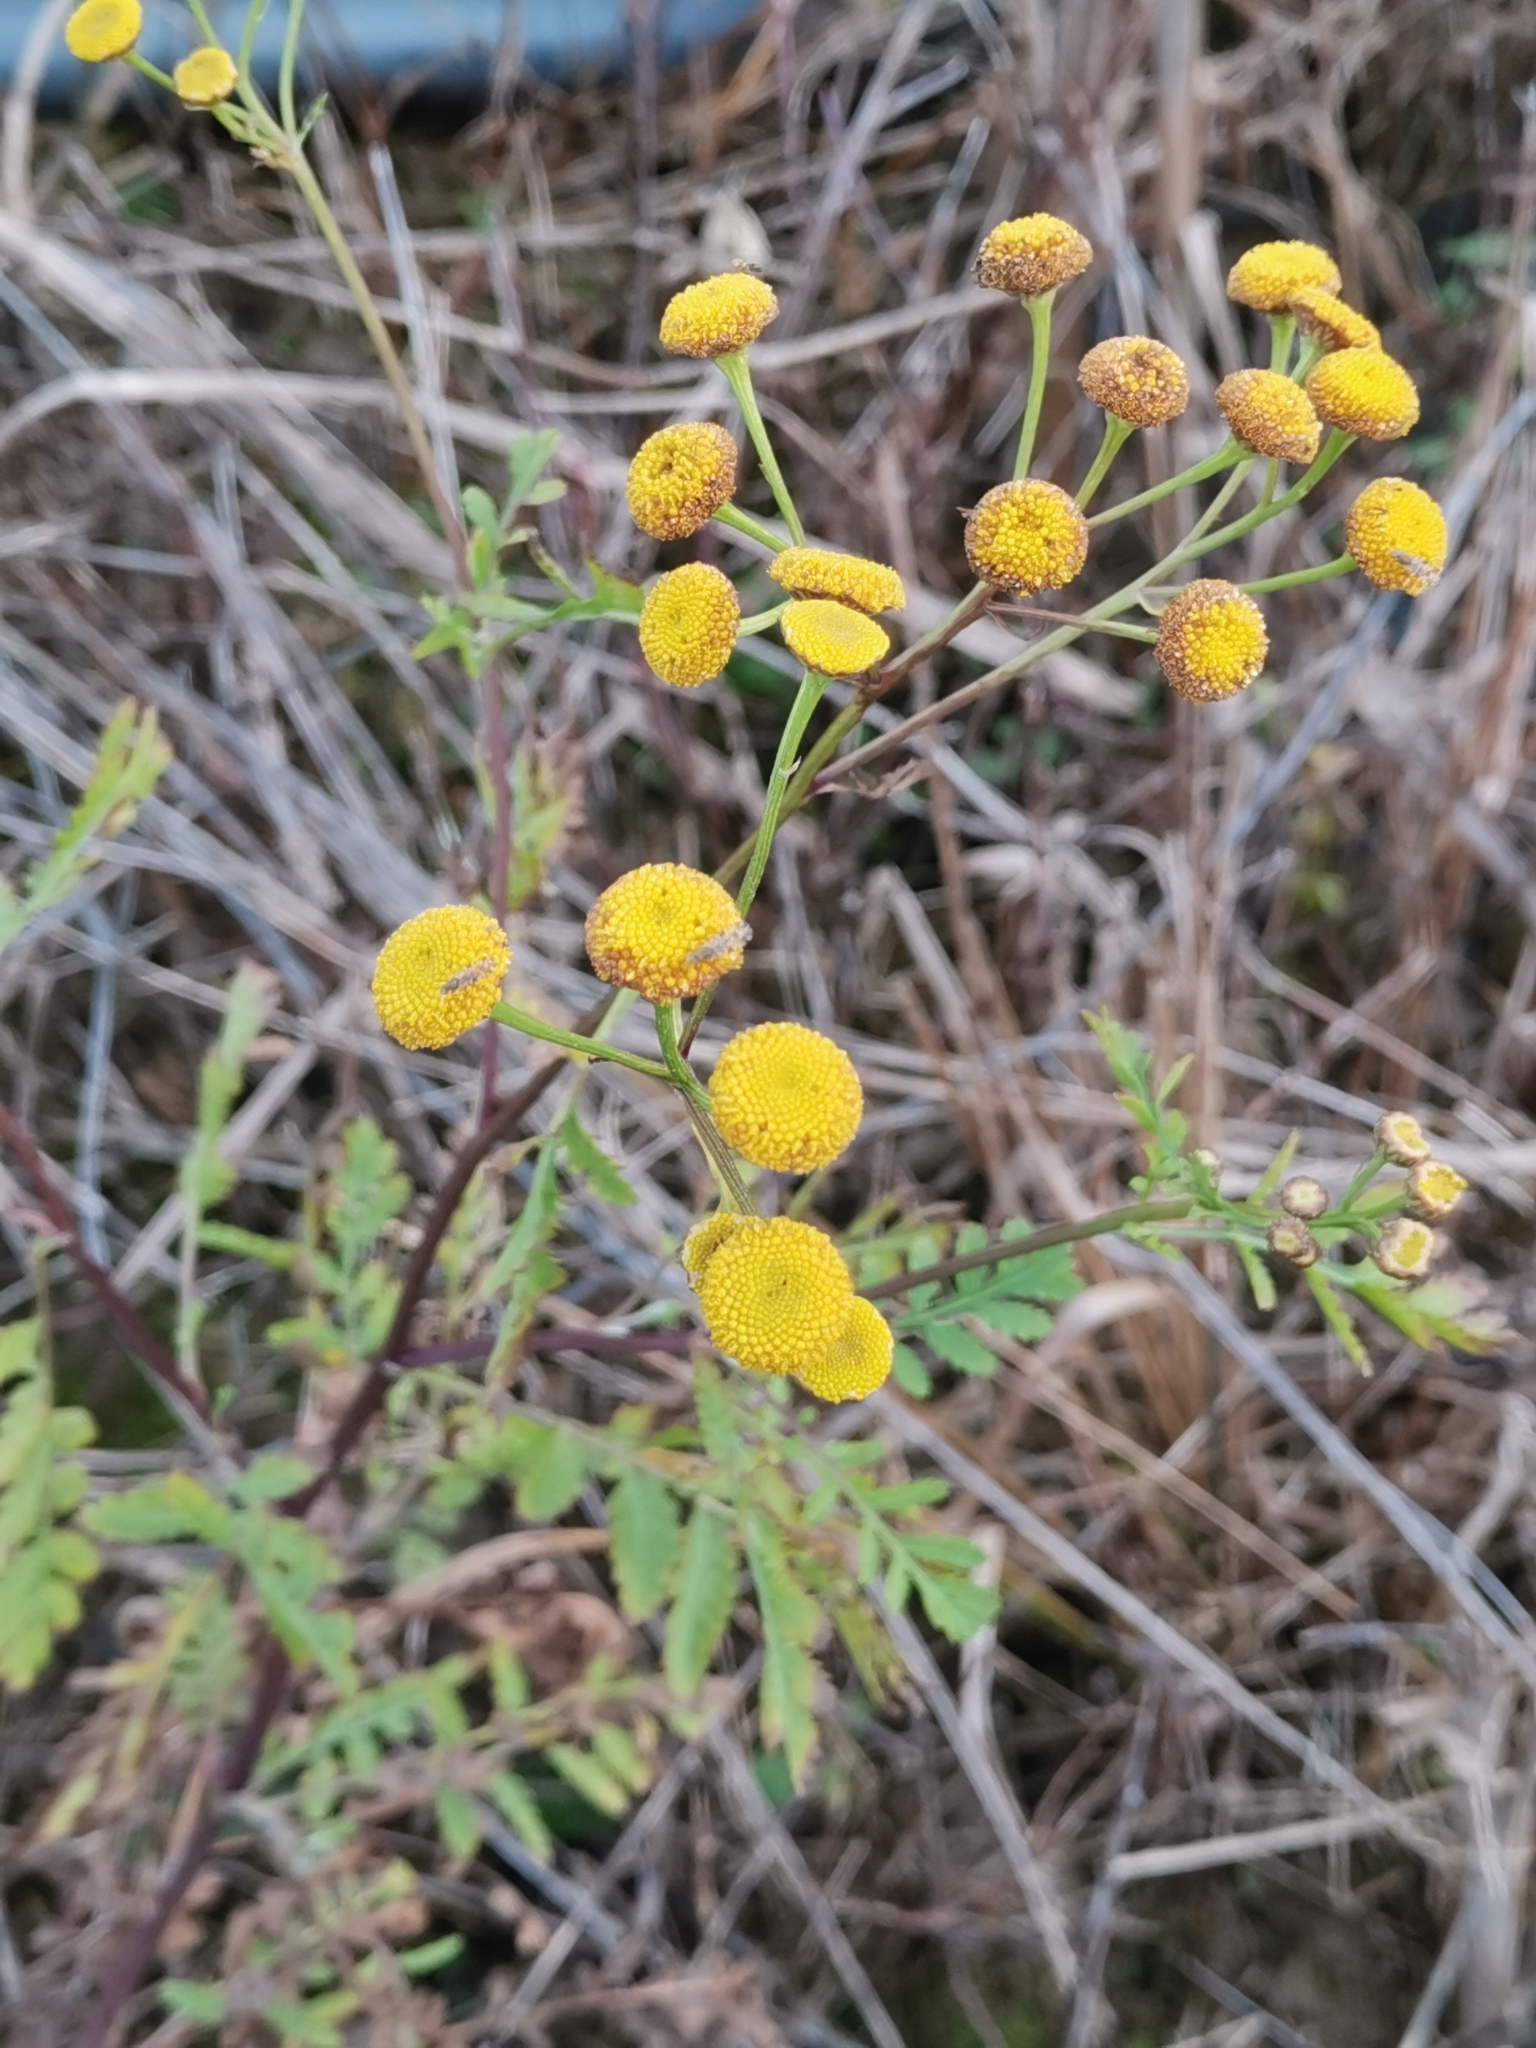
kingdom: Plantae
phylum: Tracheophyta
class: Magnoliopsida
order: Asterales
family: Asteraceae
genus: Tanacetum
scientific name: Tanacetum vulgare
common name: Common tansy
